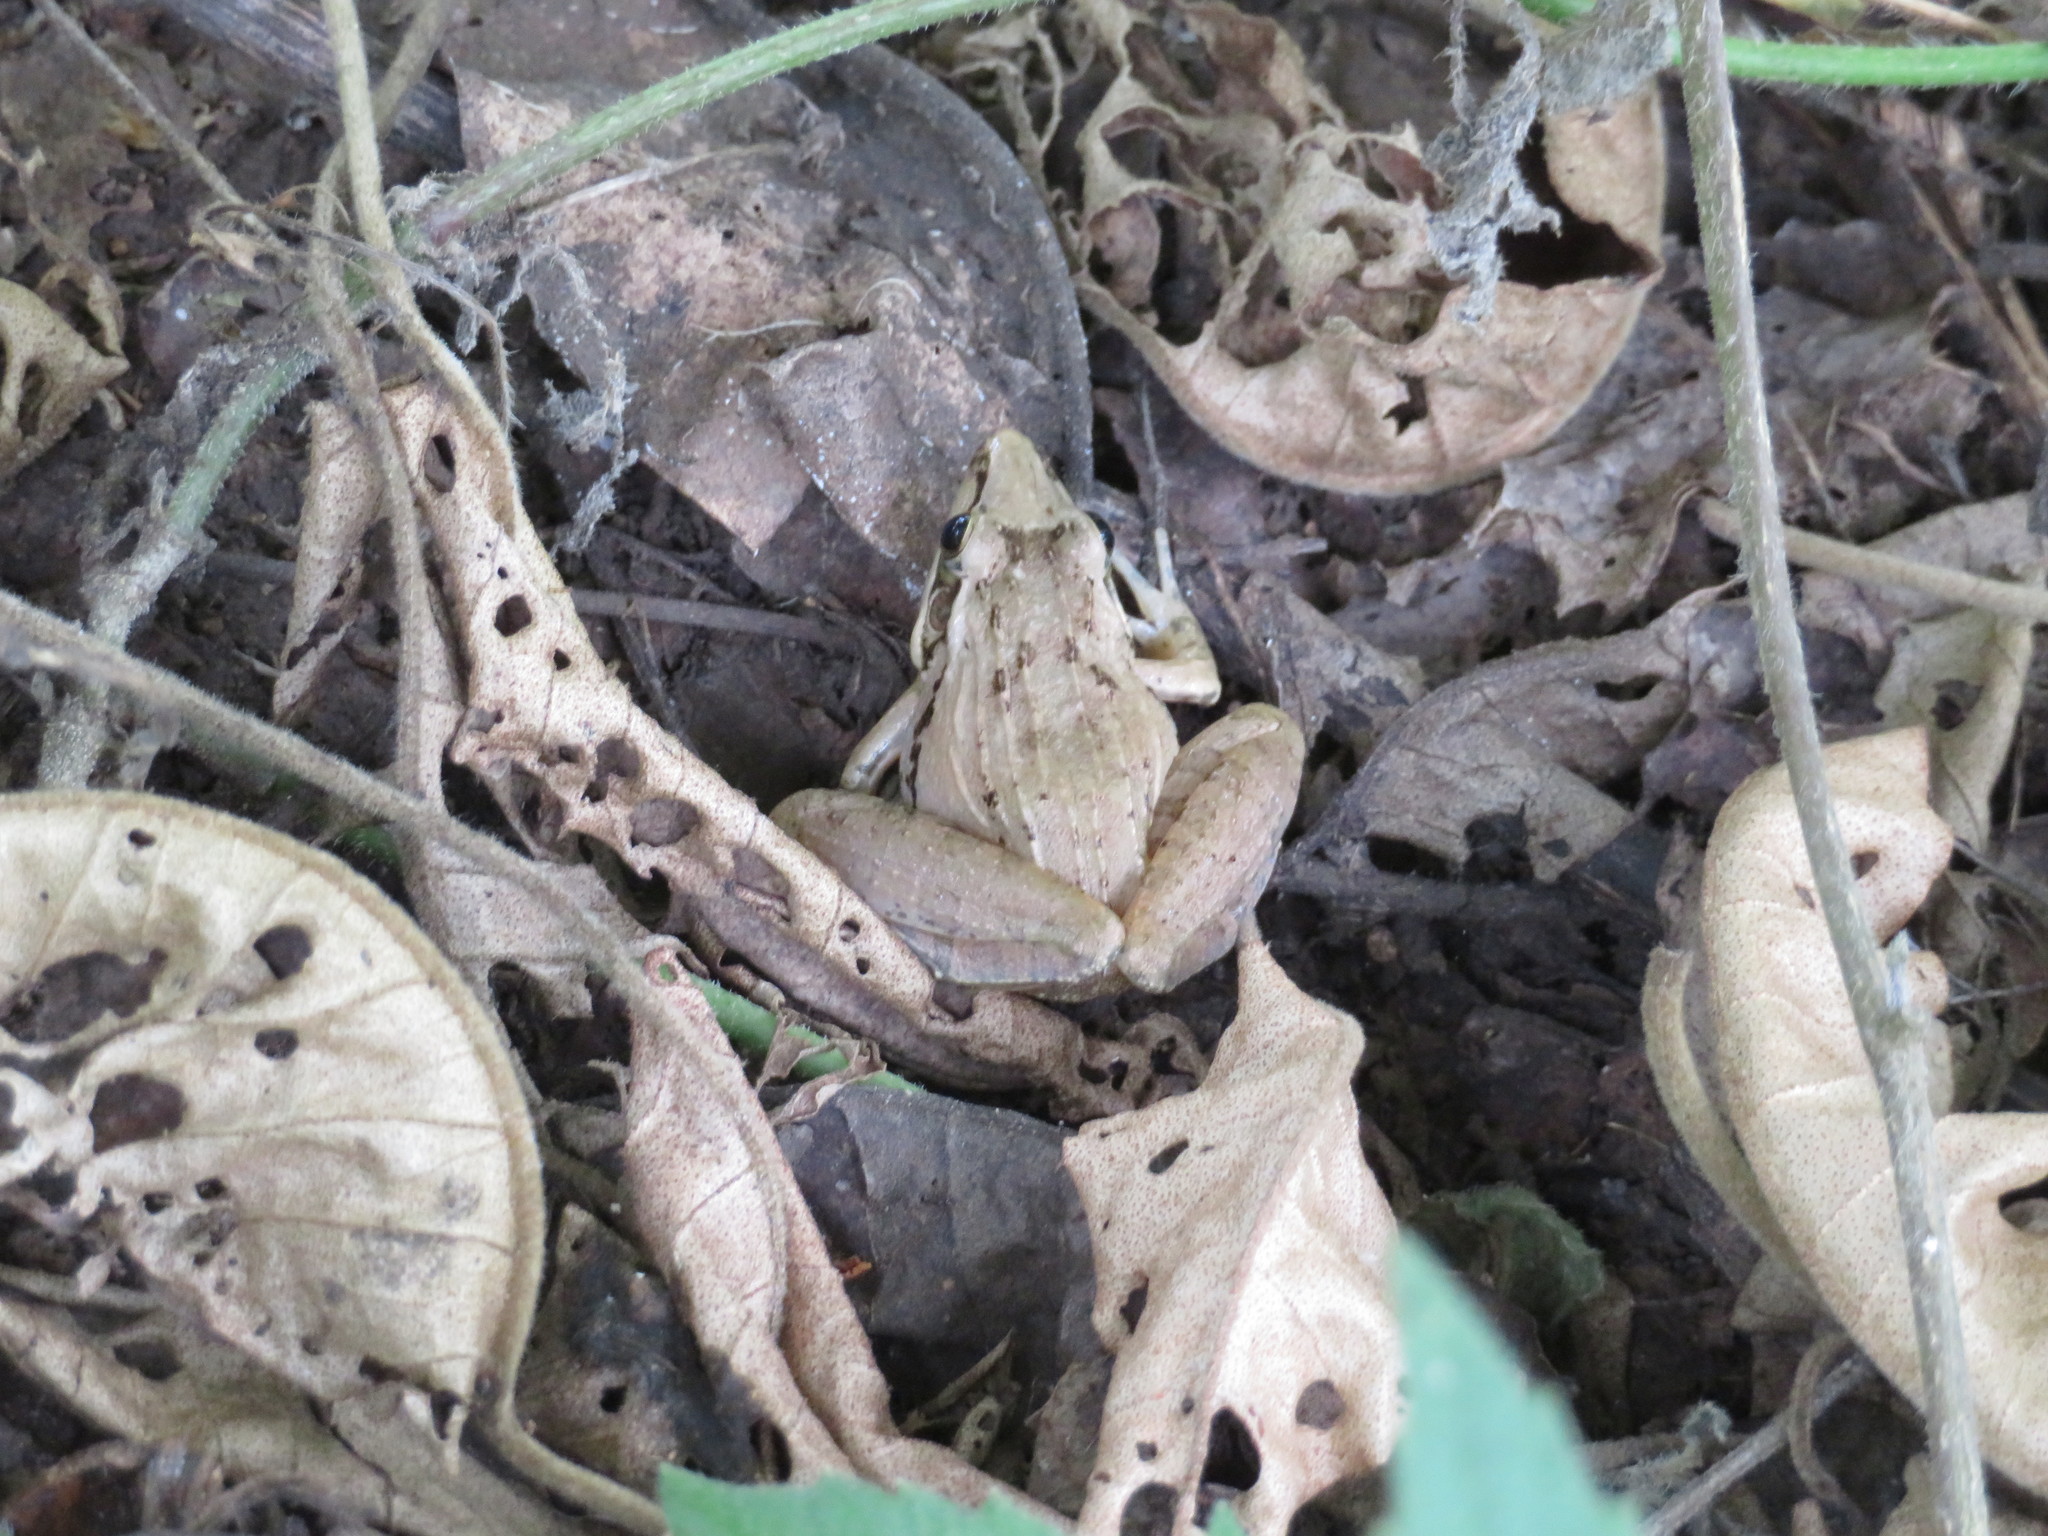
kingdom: Animalia
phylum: Chordata
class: Amphibia
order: Anura
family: Ptychadenidae
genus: Ptychadena
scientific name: Ptychadena anchietae
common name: Anchieta's ridged frog
